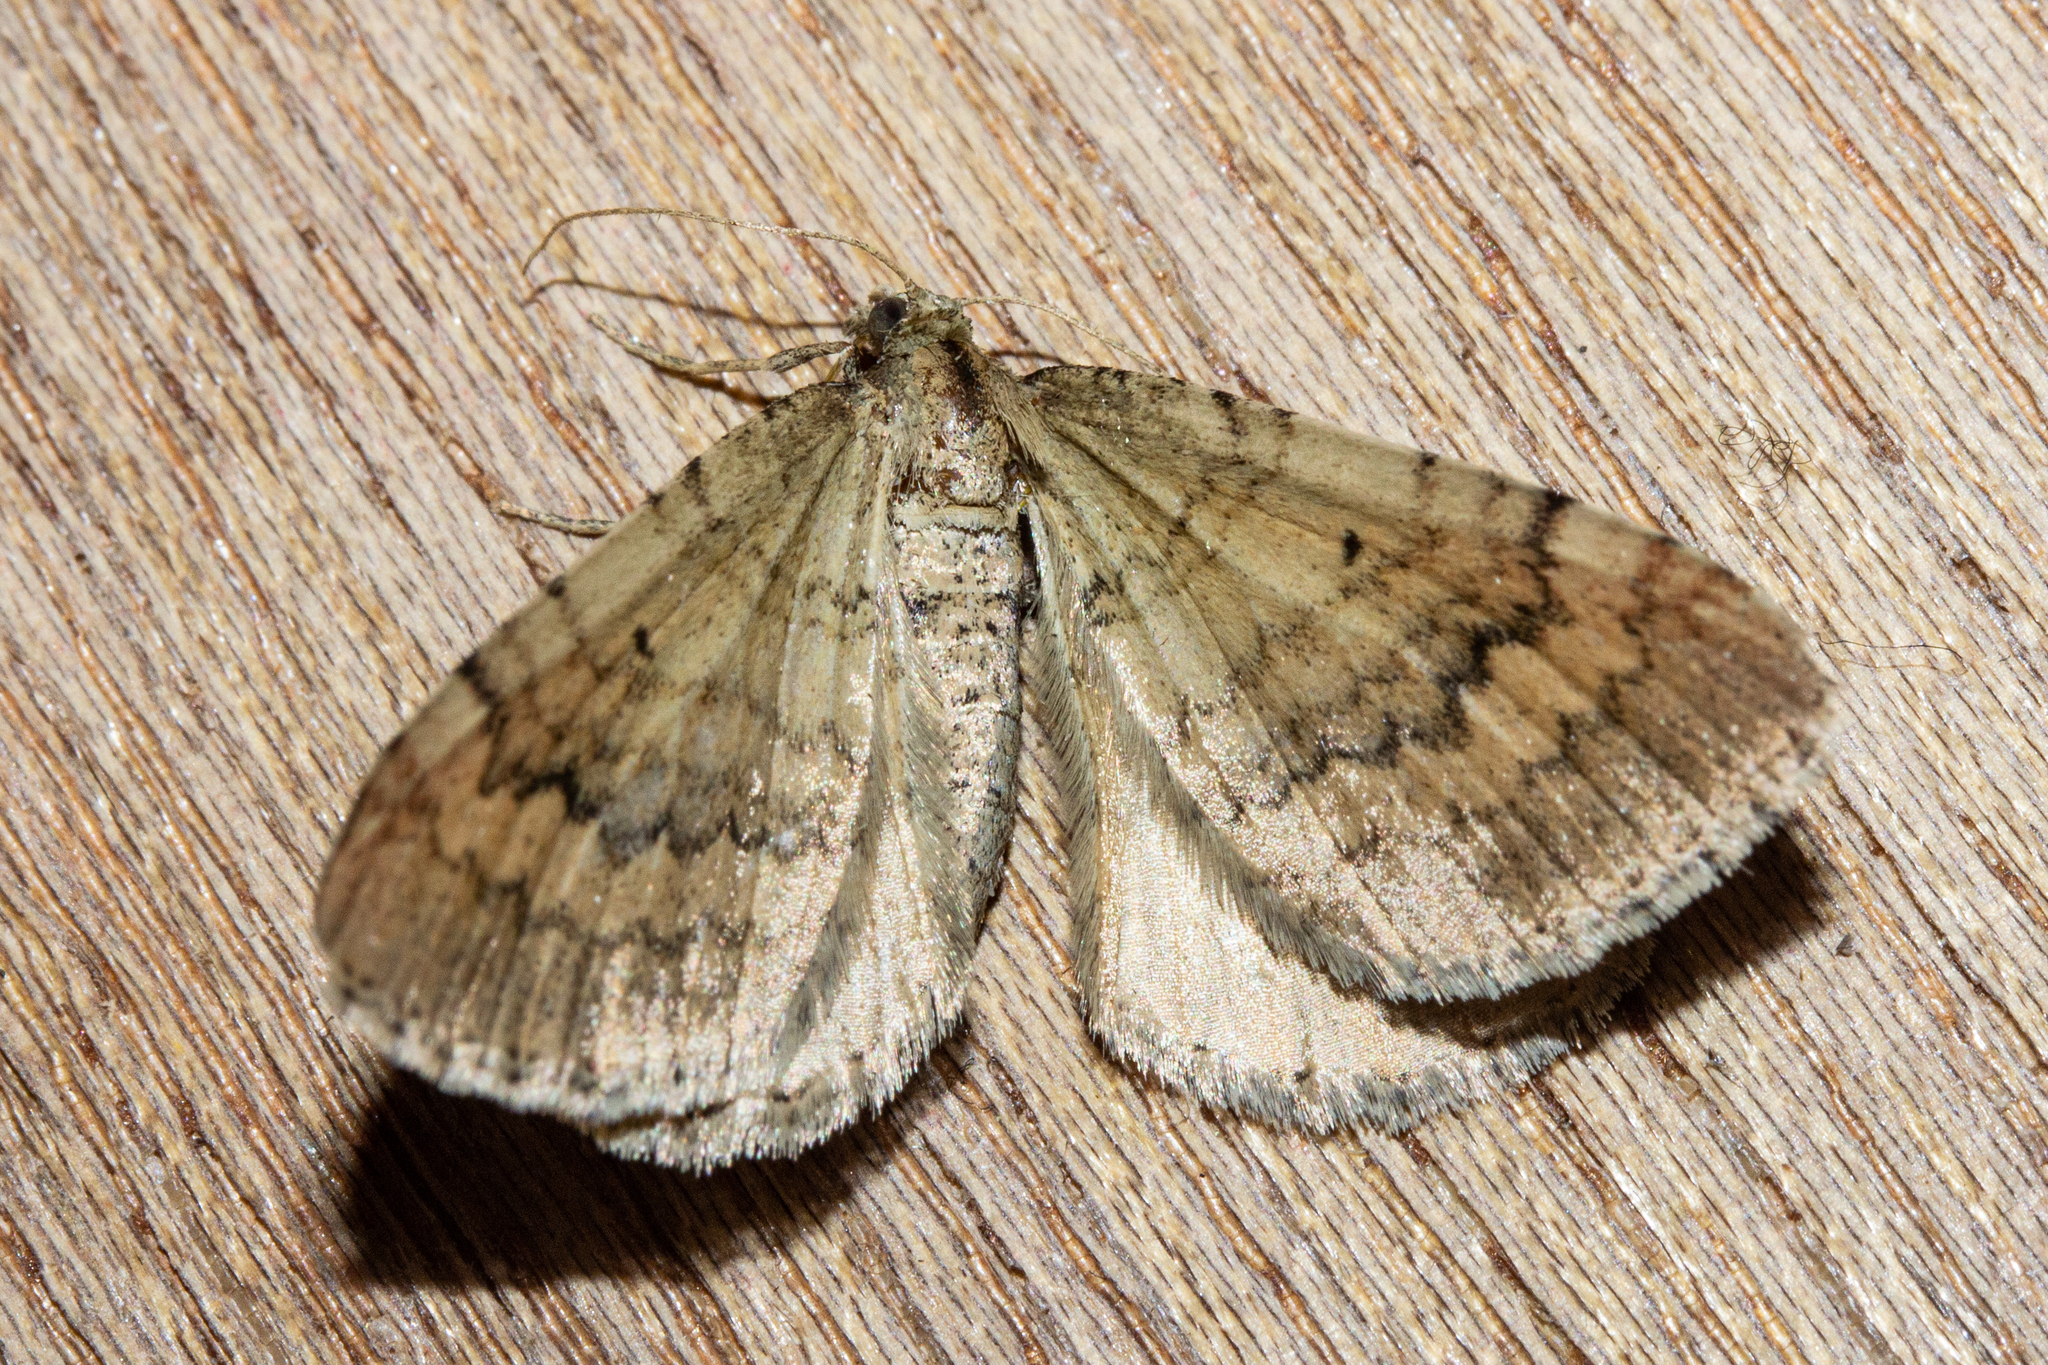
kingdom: Animalia
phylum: Arthropoda
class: Insecta
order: Lepidoptera
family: Geometridae
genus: Asaphodes
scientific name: Asaphodes aegrota
